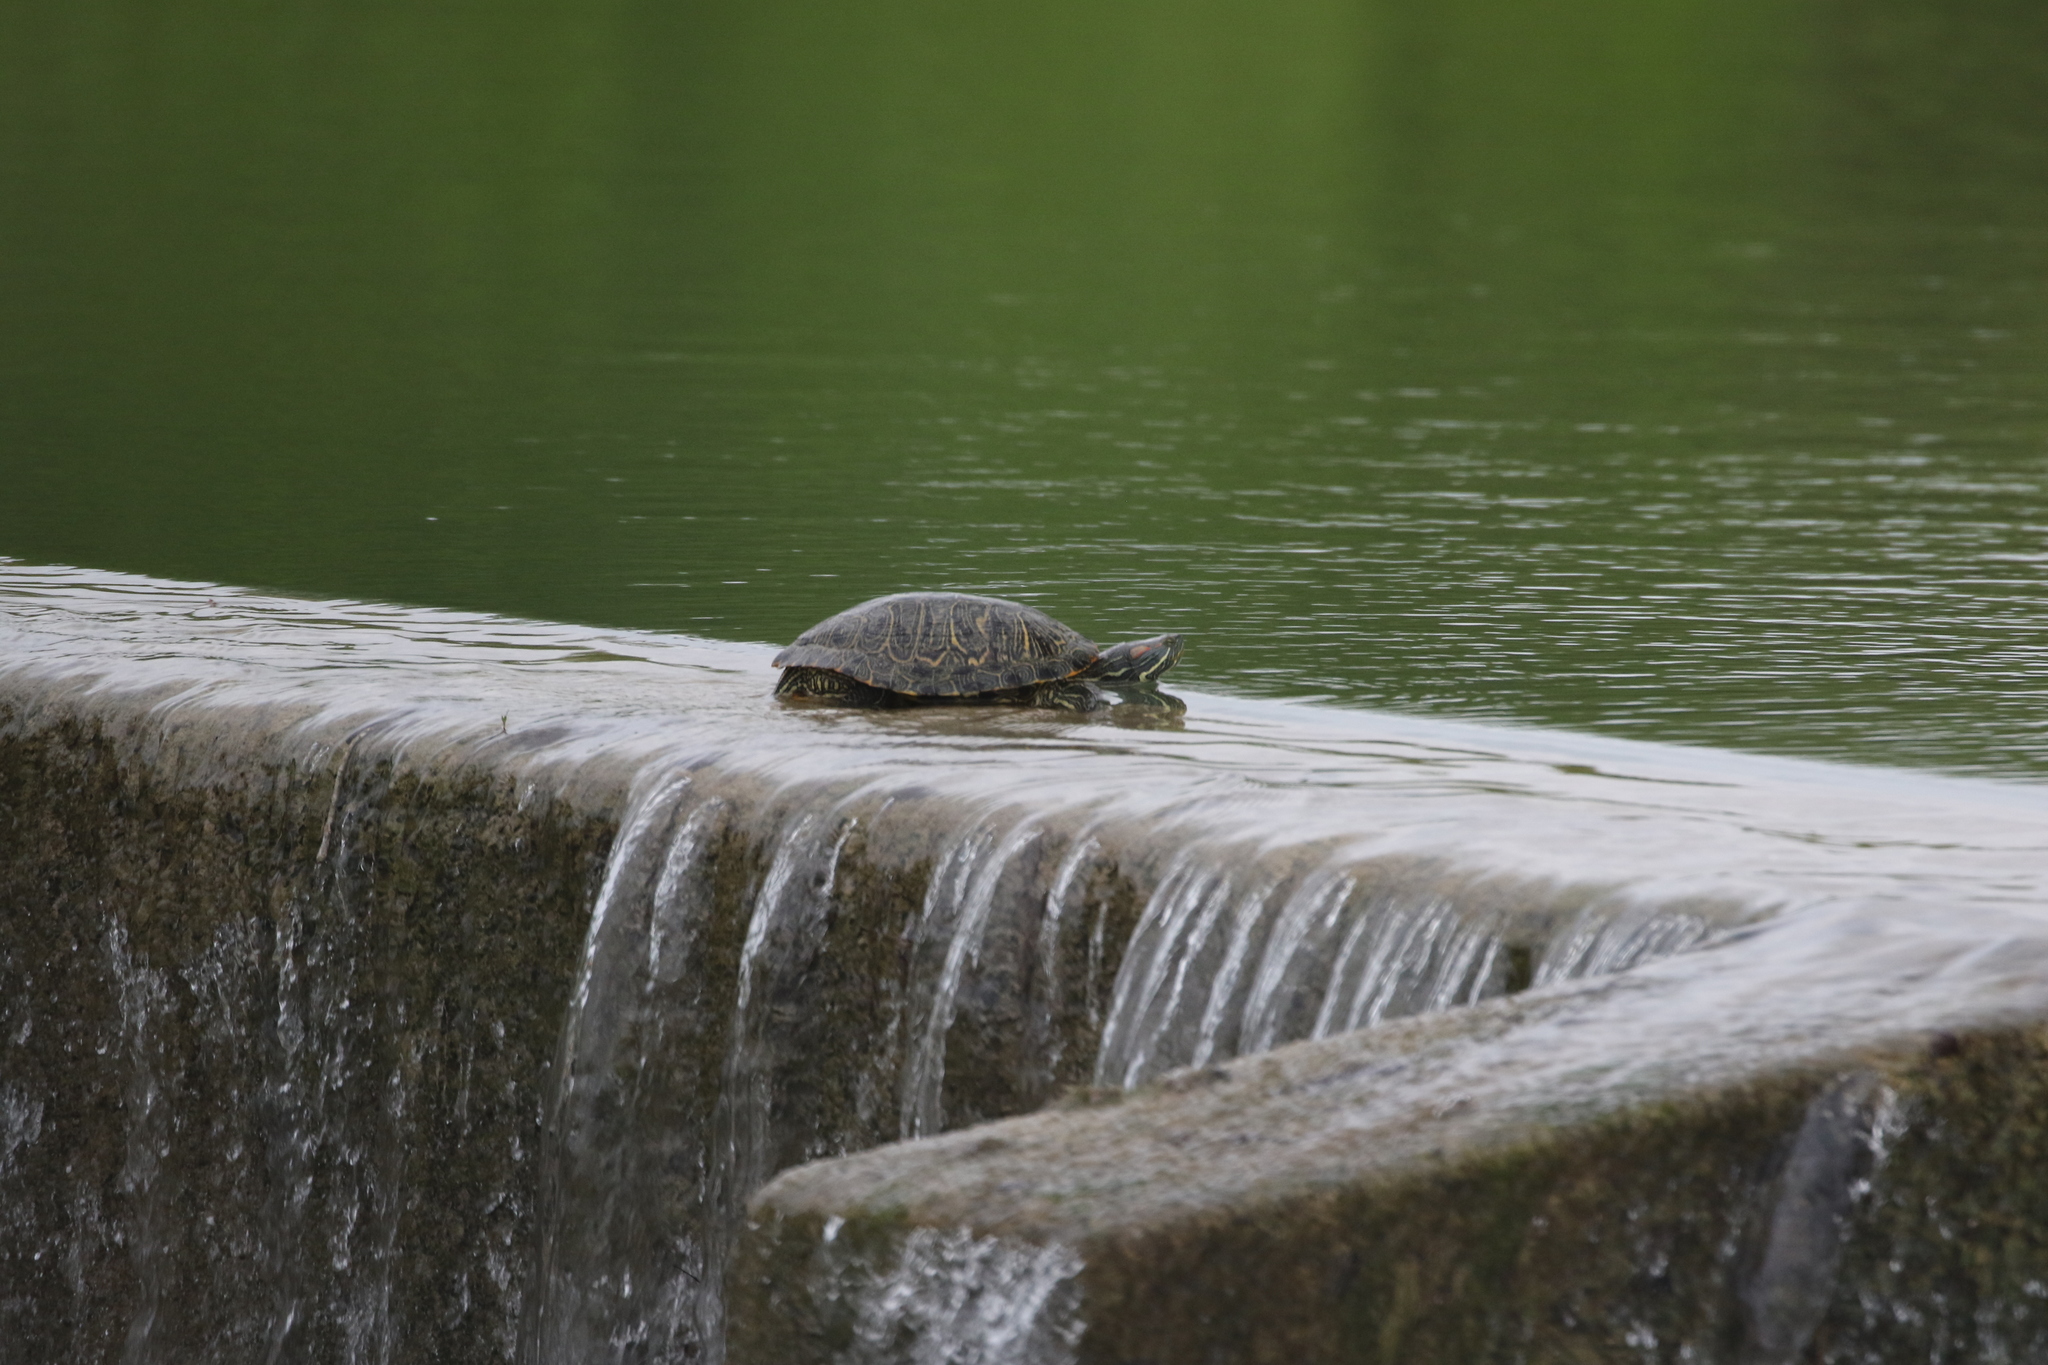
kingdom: Animalia
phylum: Chordata
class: Testudines
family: Emydidae
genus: Trachemys
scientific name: Trachemys scripta
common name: Slider
